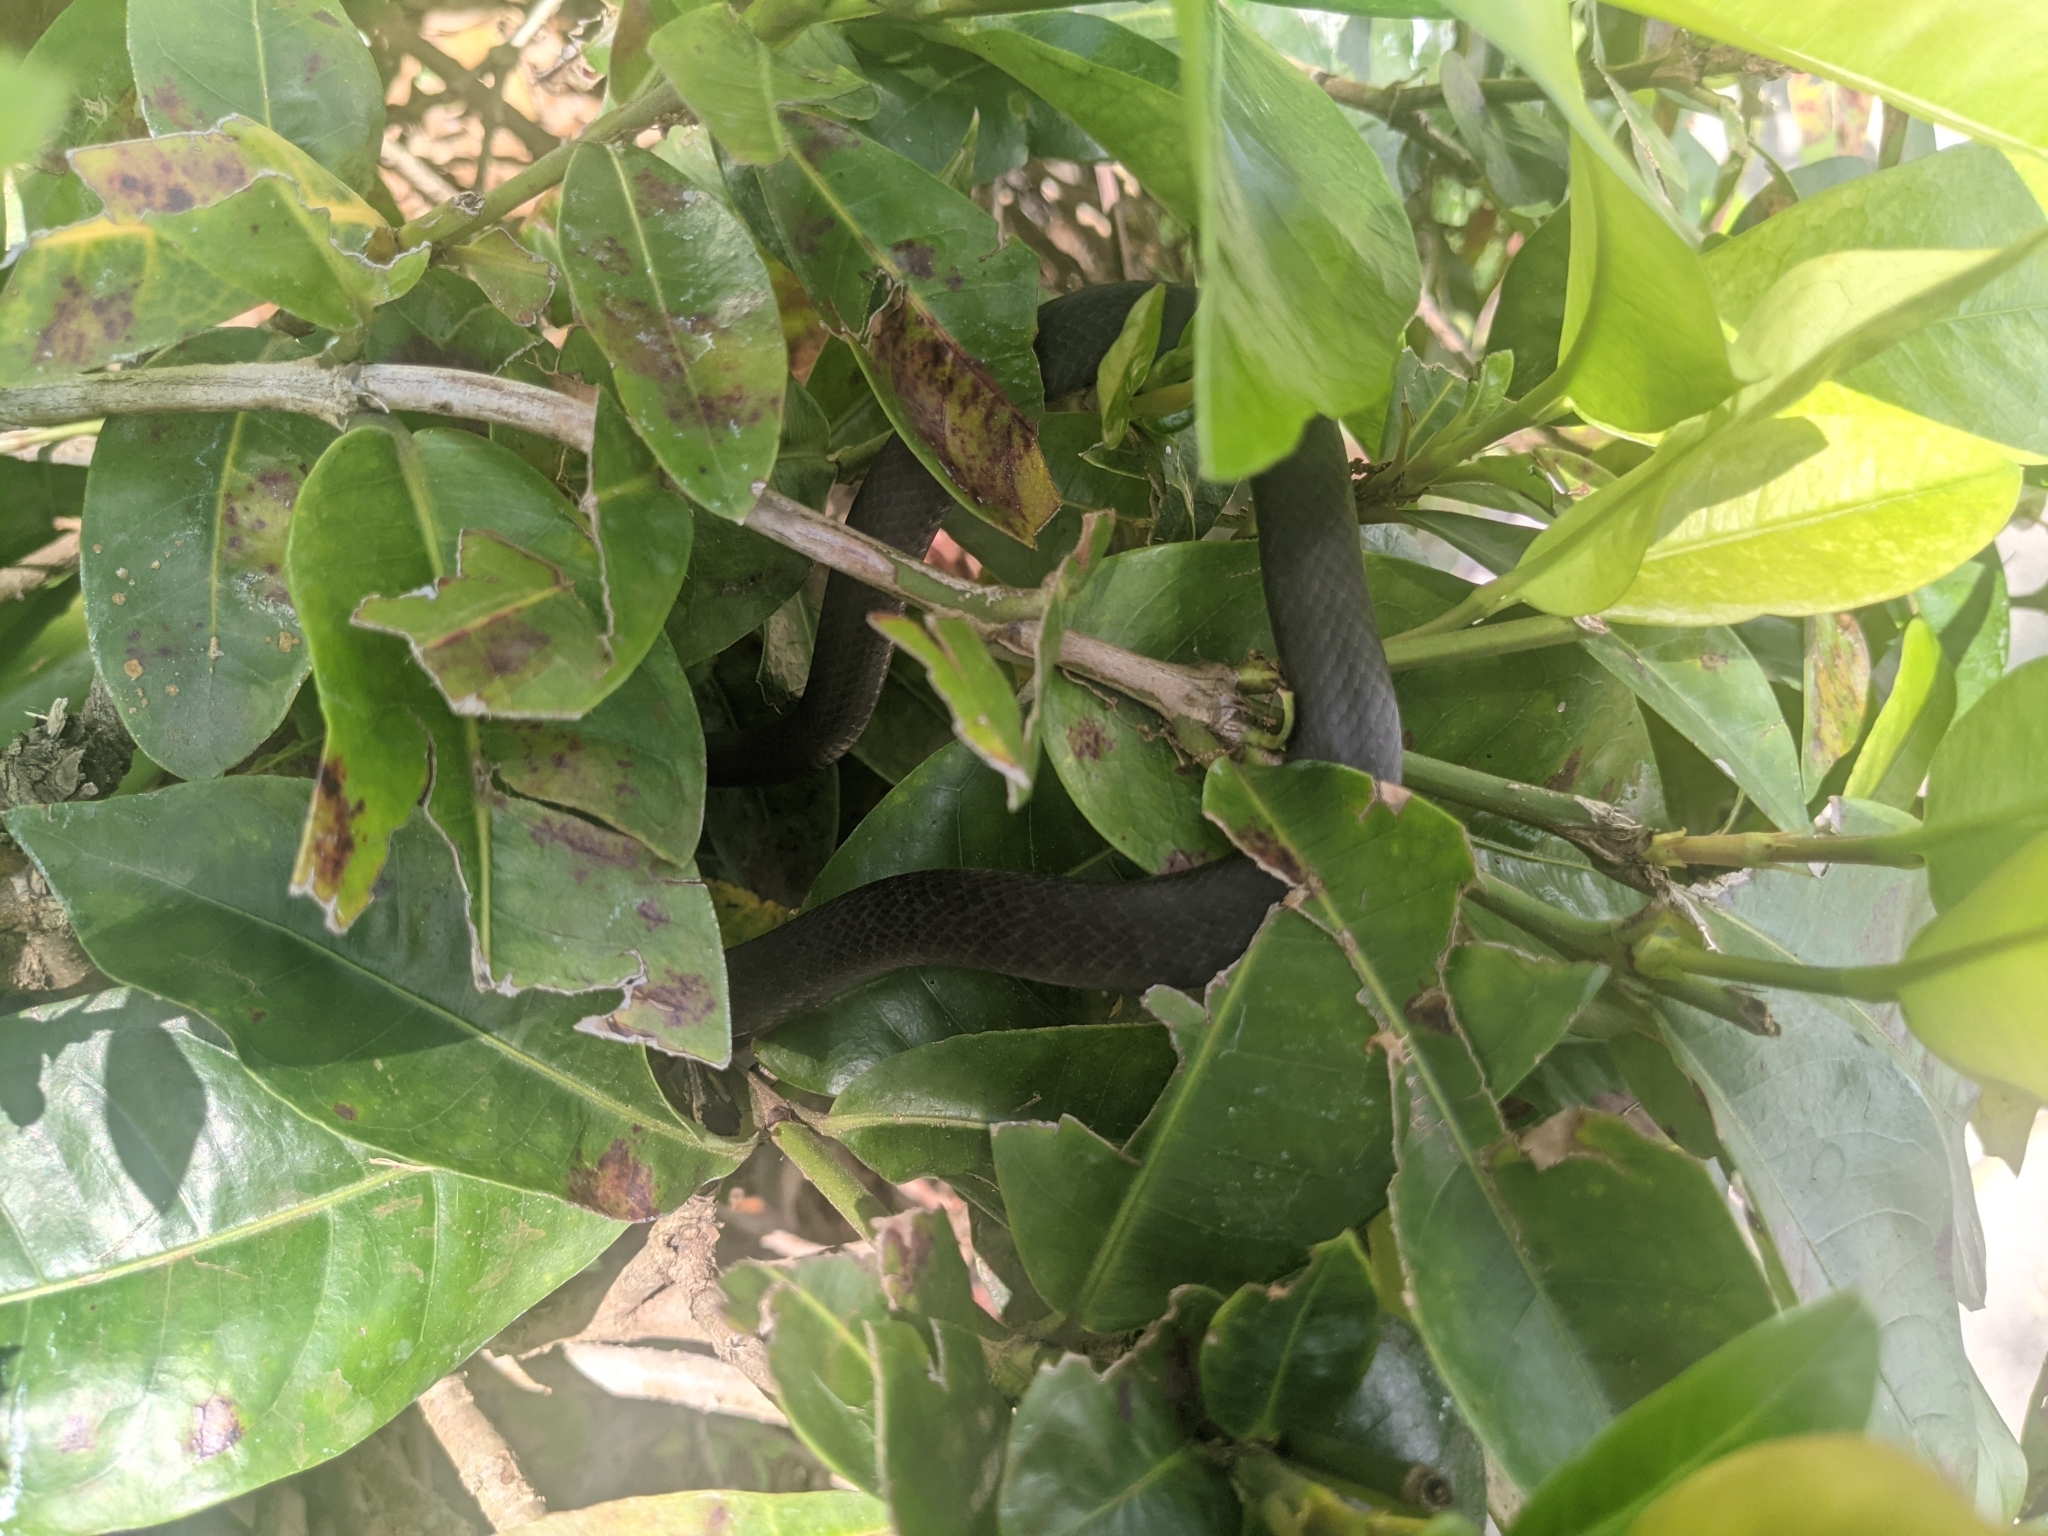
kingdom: Animalia
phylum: Chordata
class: Squamata
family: Colubridae
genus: Coluber
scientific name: Coluber constrictor
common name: Eastern racer
